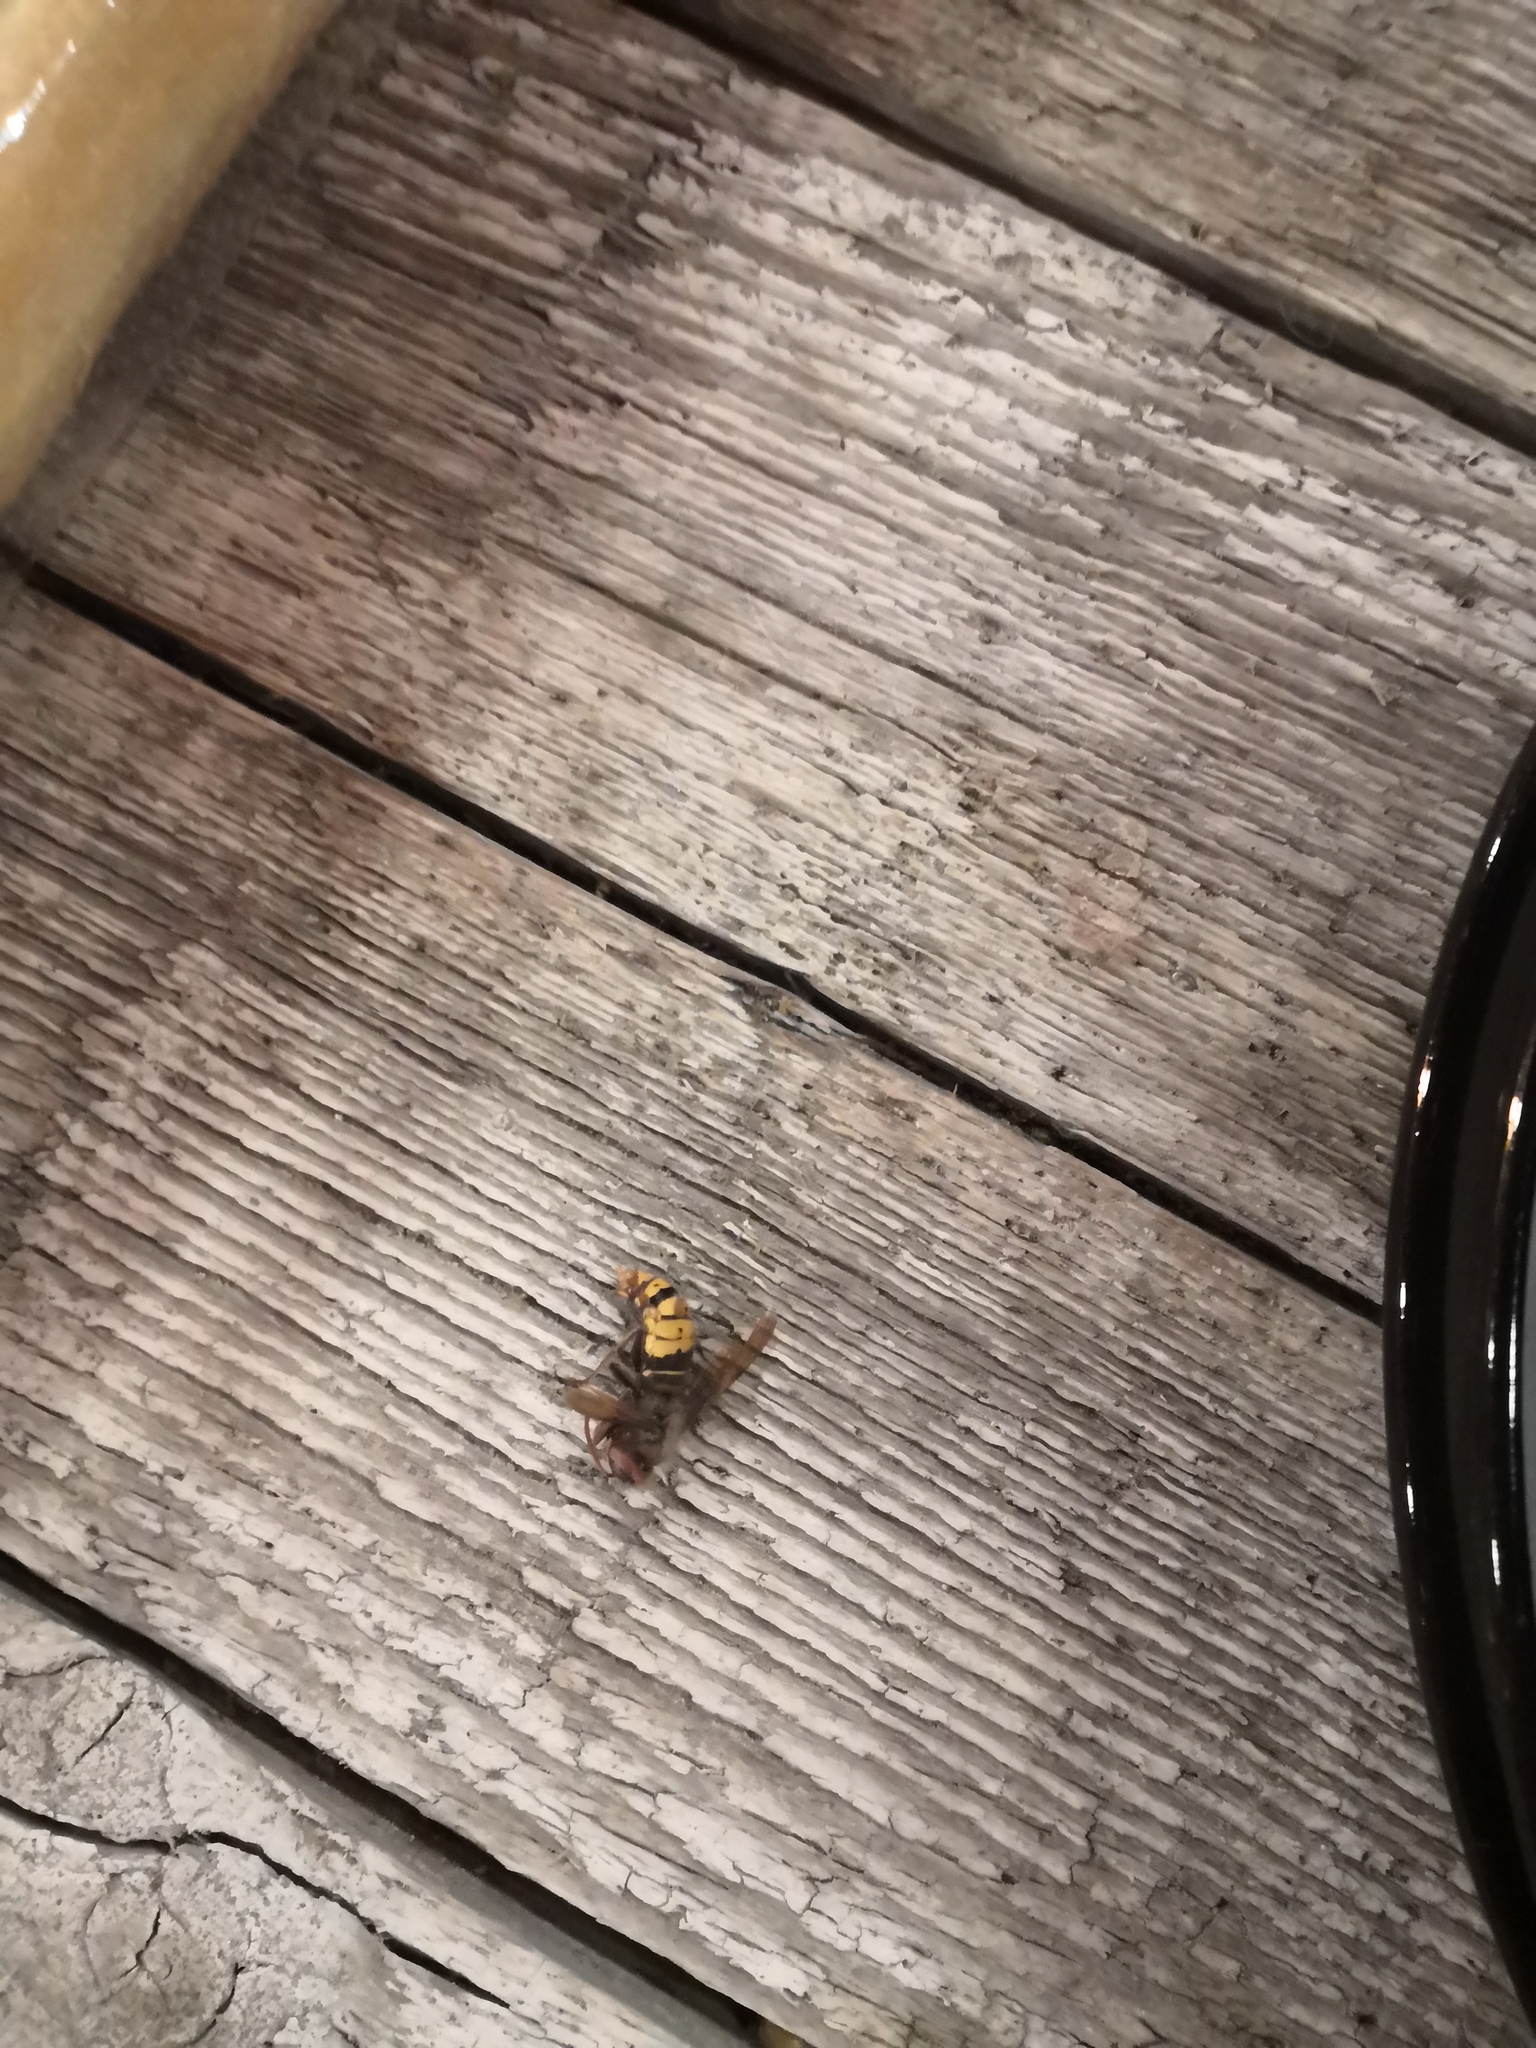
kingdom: Animalia
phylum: Arthropoda
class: Insecta
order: Hymenoptera
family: Vespidae
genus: Vespa
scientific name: Vespa crabro
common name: Hornet
